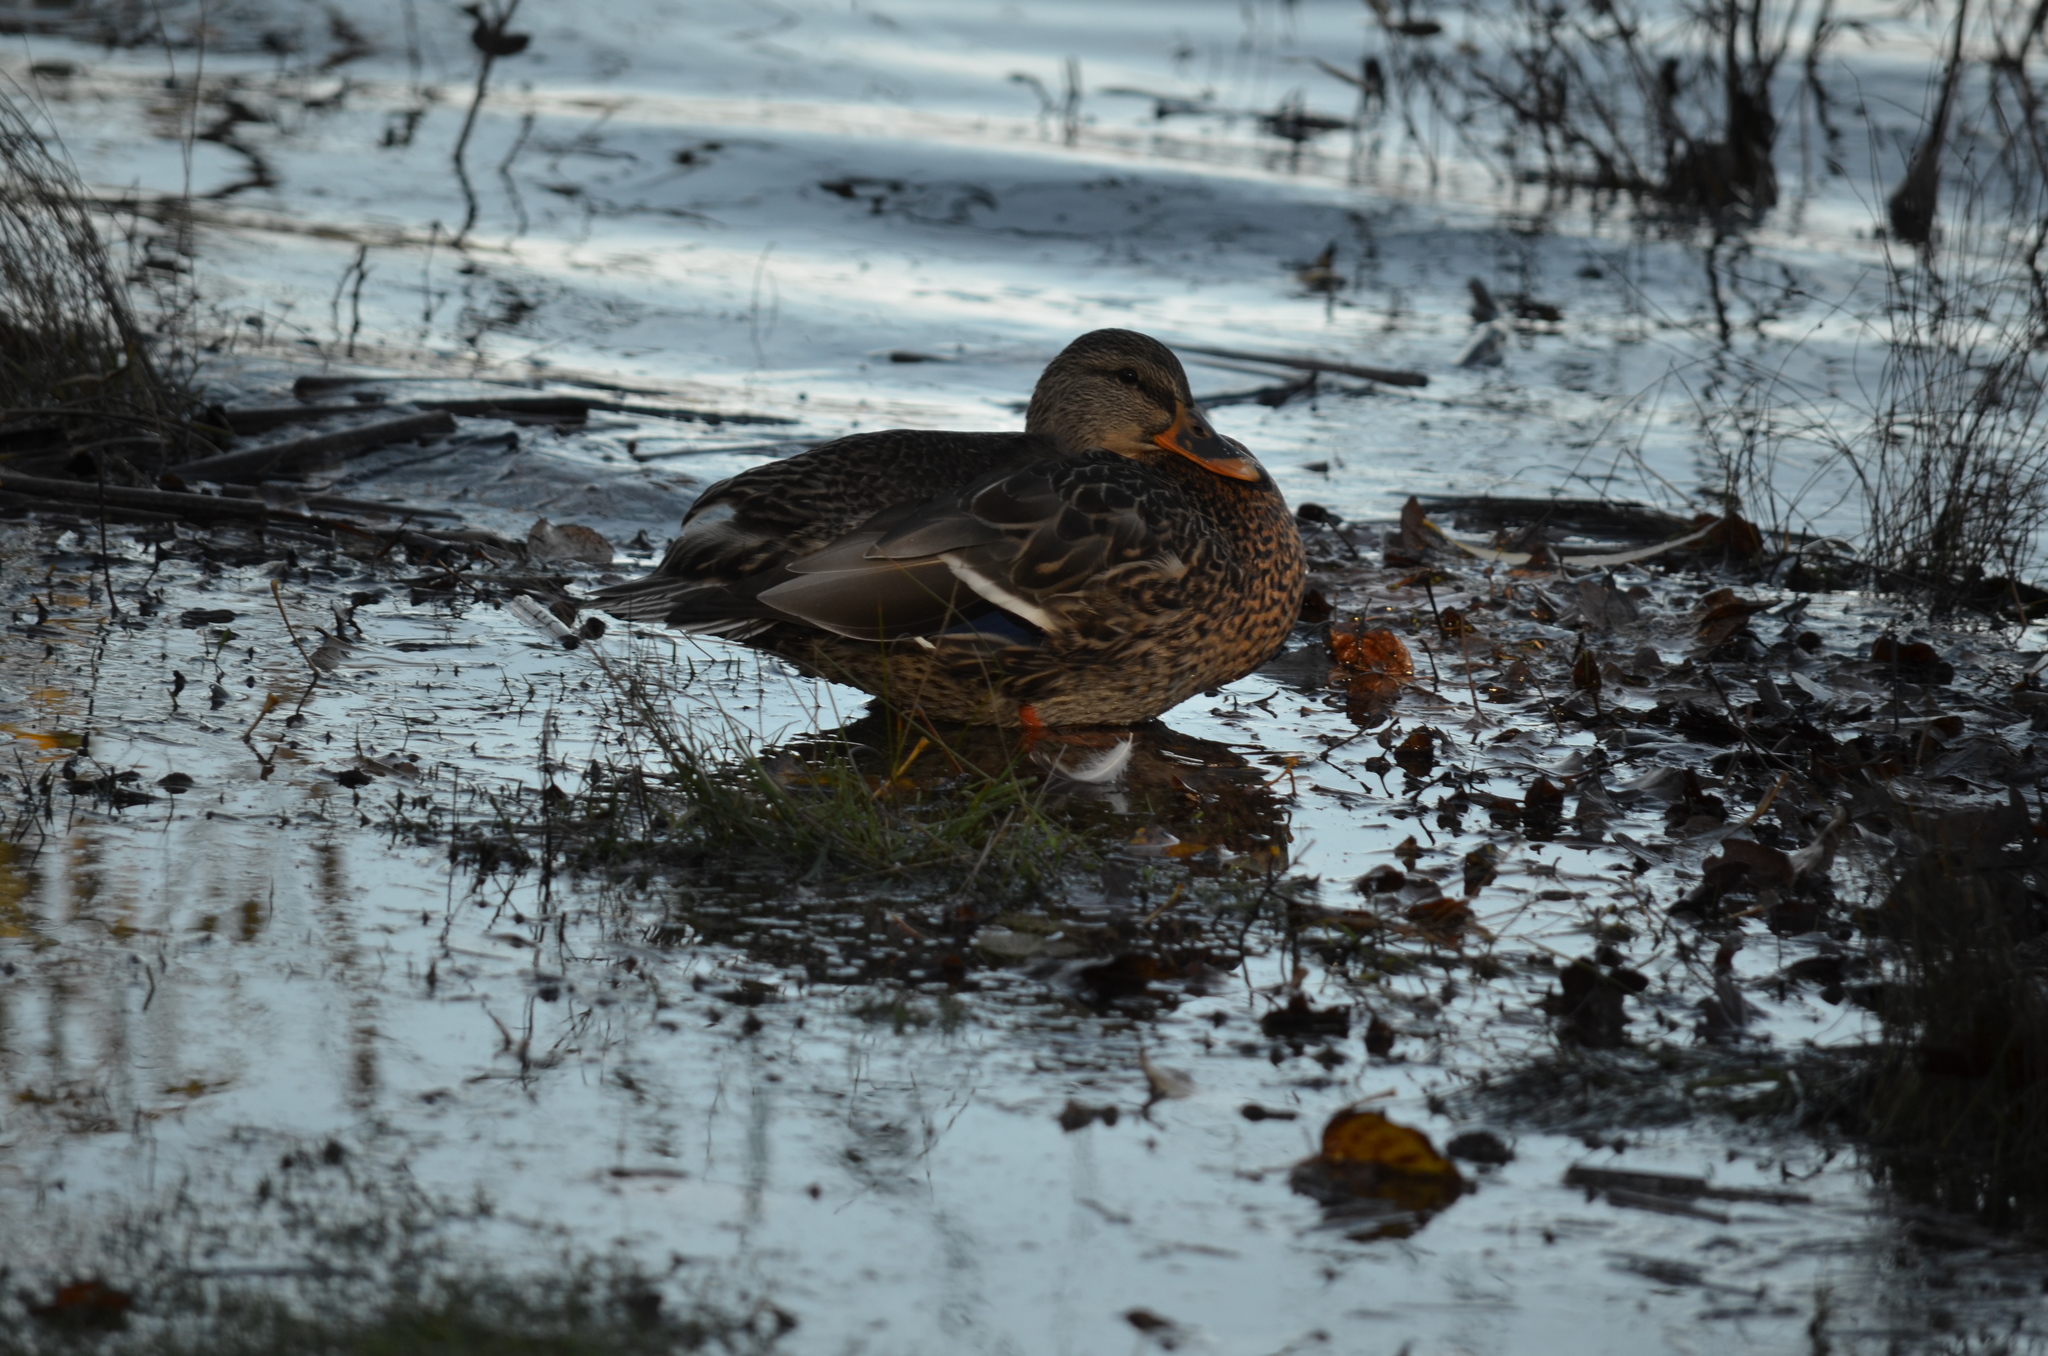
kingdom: Animalia
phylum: Chordata
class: Aves
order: Anseriformes
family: Anatidae
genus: Anas
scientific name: Anas platyrhynchos
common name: Mallard
